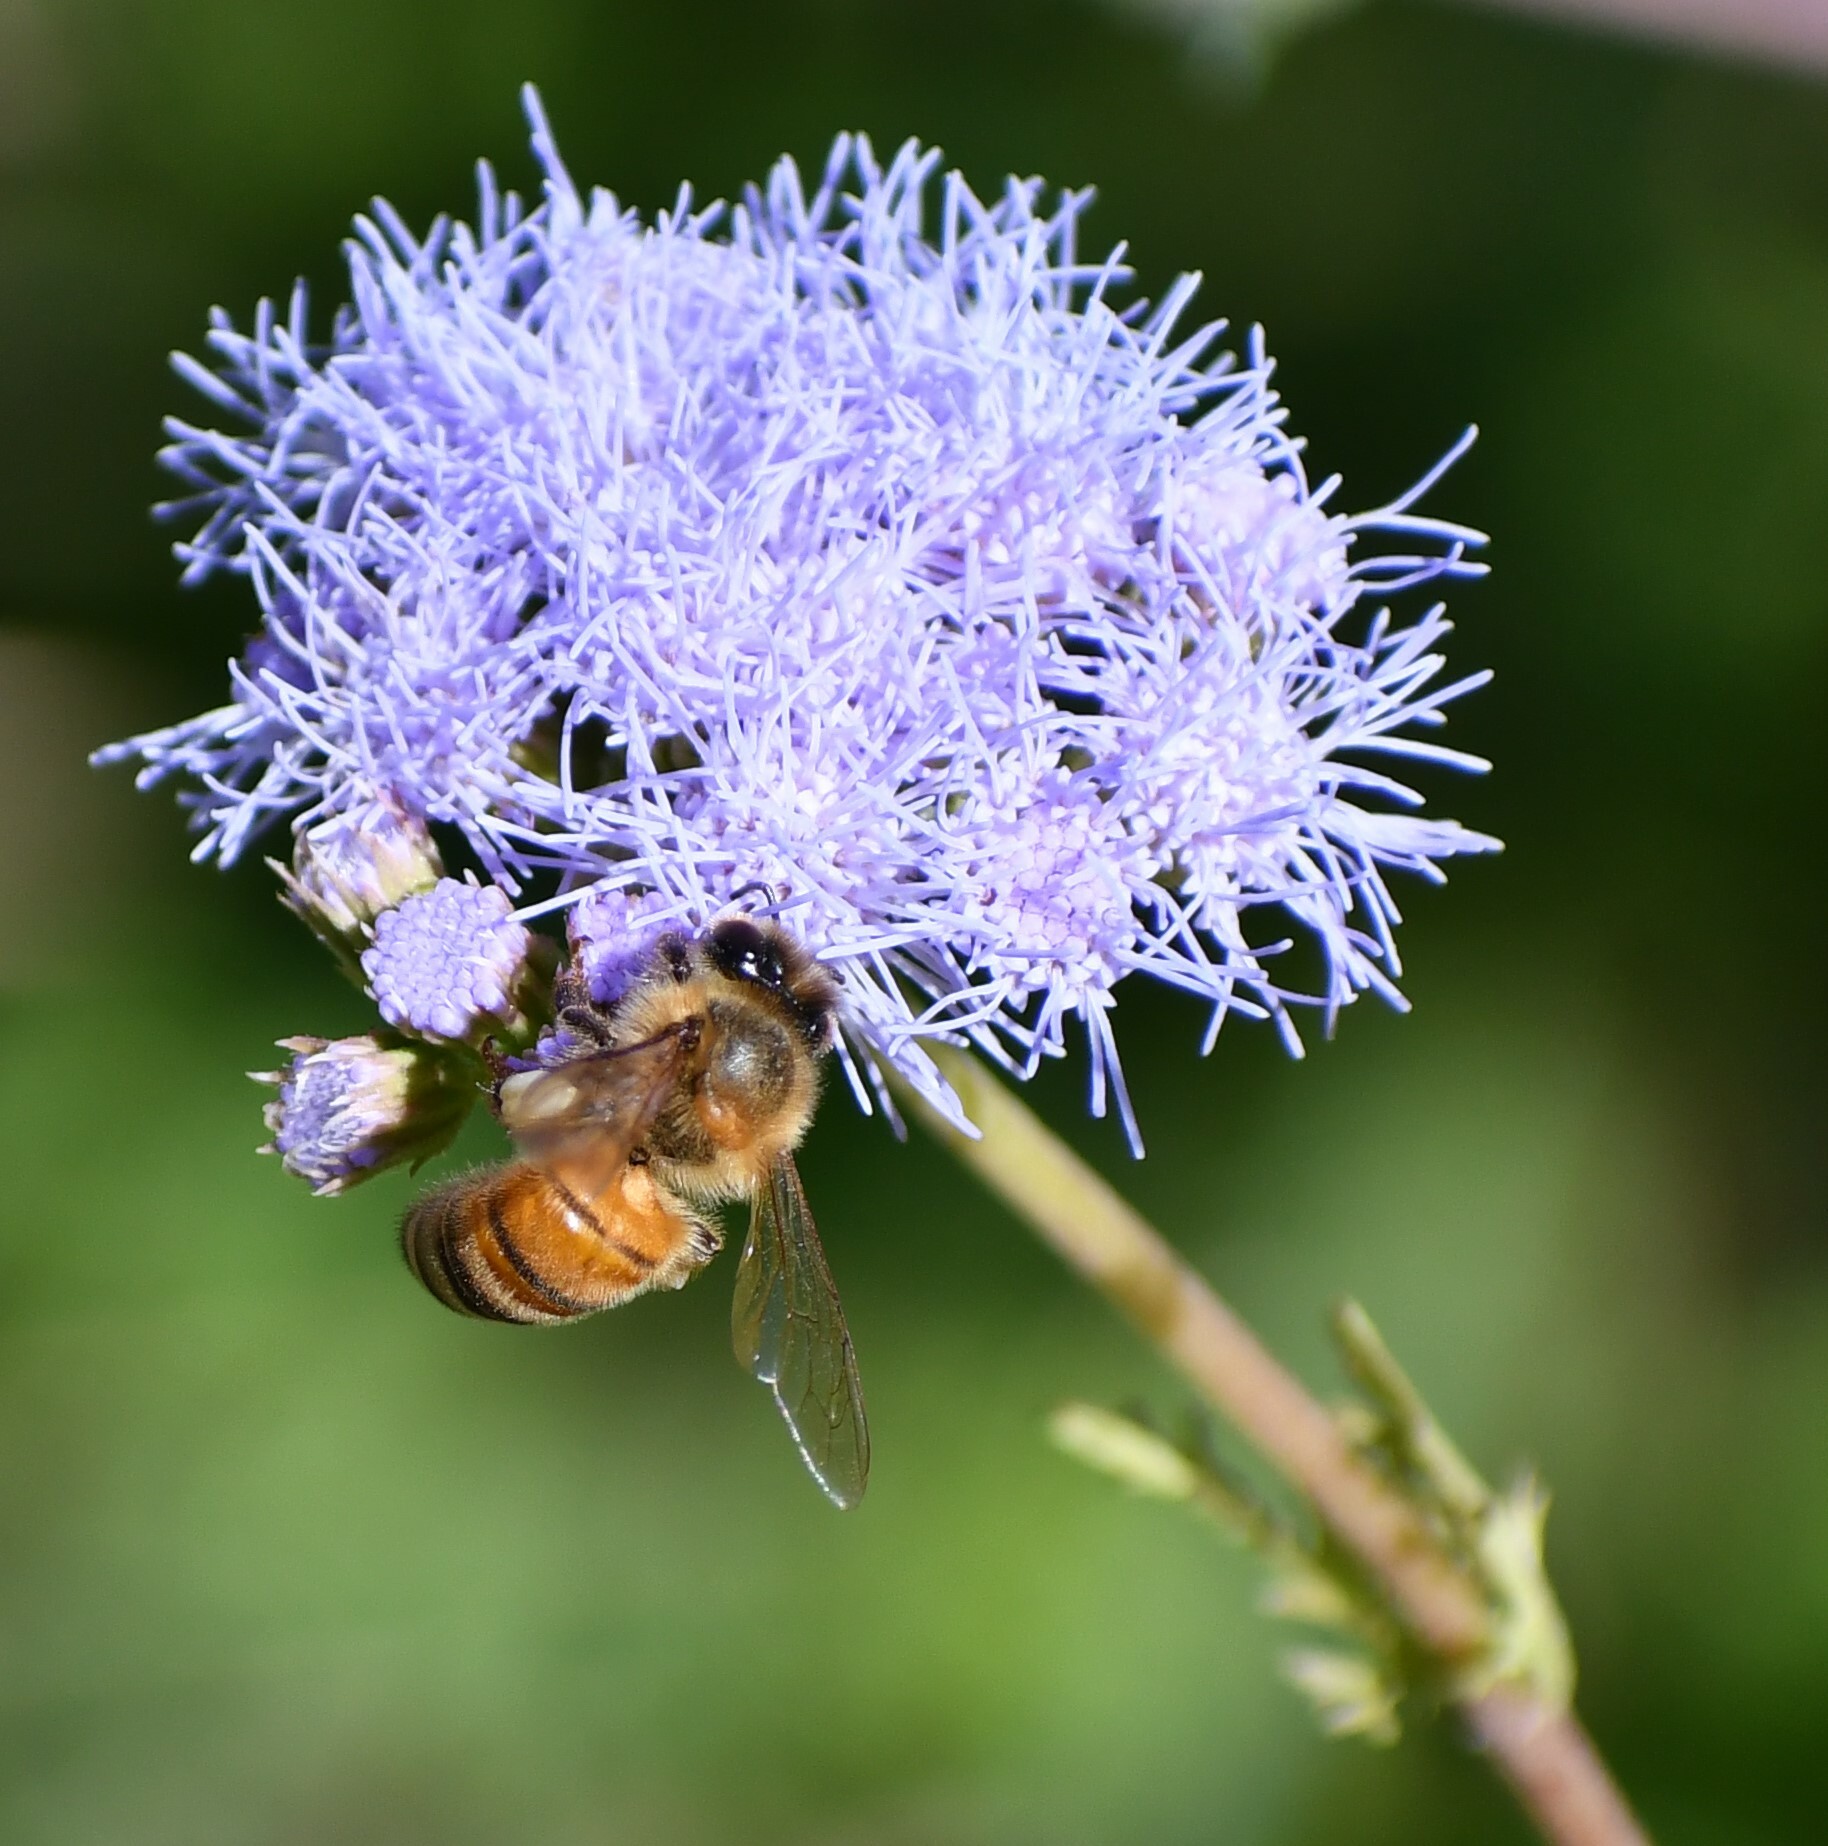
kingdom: Animalia
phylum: Arthropoda
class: Insecta
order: Hymenoptera
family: Apidae
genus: Apis
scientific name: Apis mellifera
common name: Honey bee
